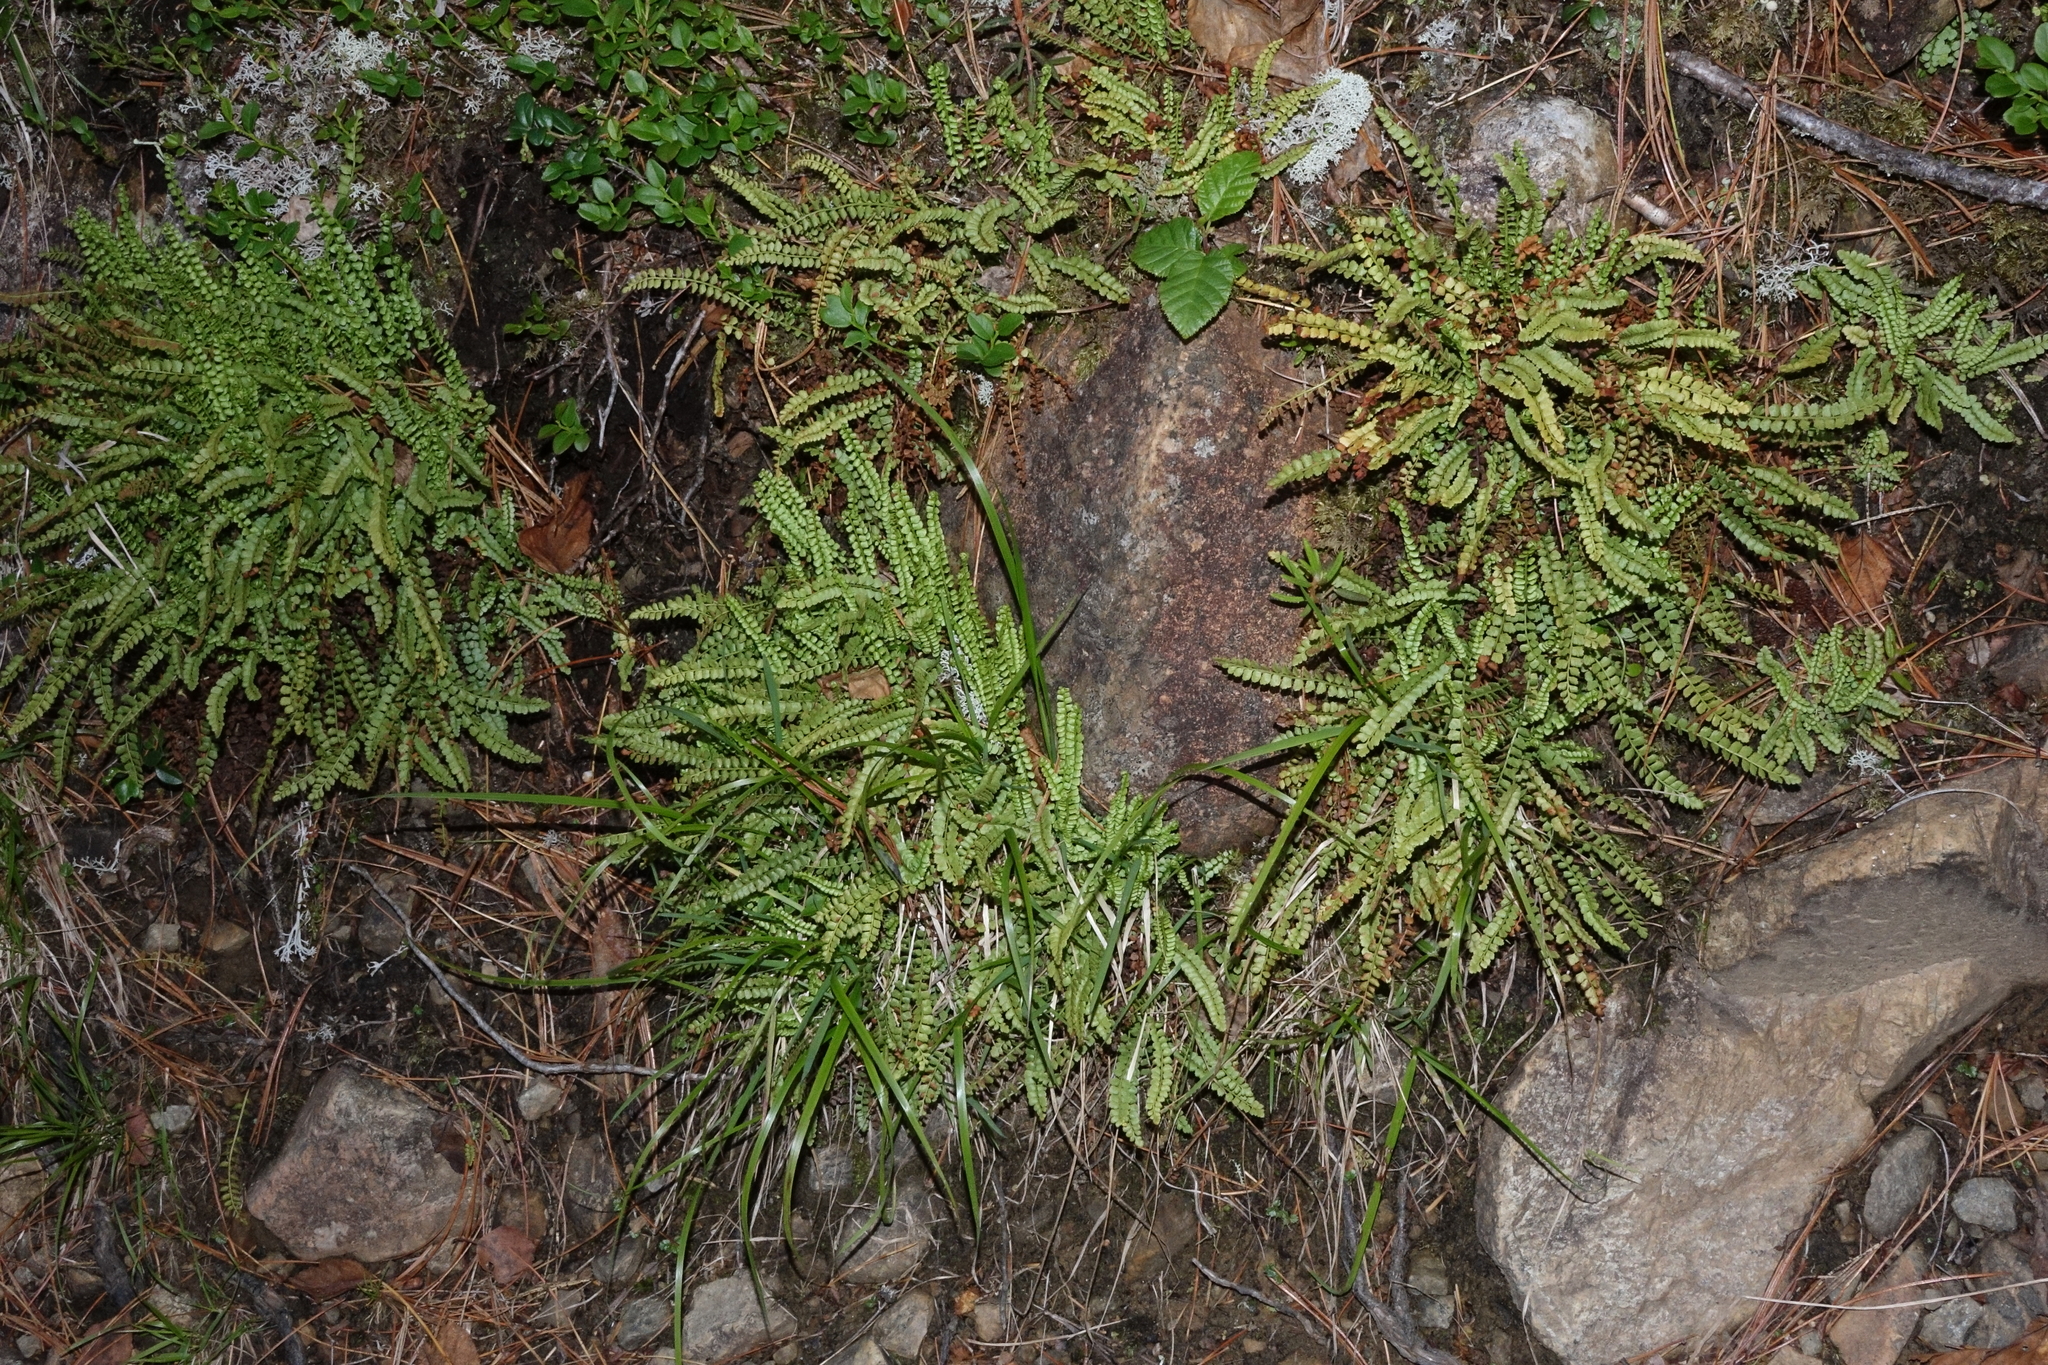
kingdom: Plantae
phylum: Tracheophyta
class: Polypodiopsida
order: Polypodiales
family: Aspleniaceae
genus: Asplenium
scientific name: Asplenium viride
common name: Green spleenwort
